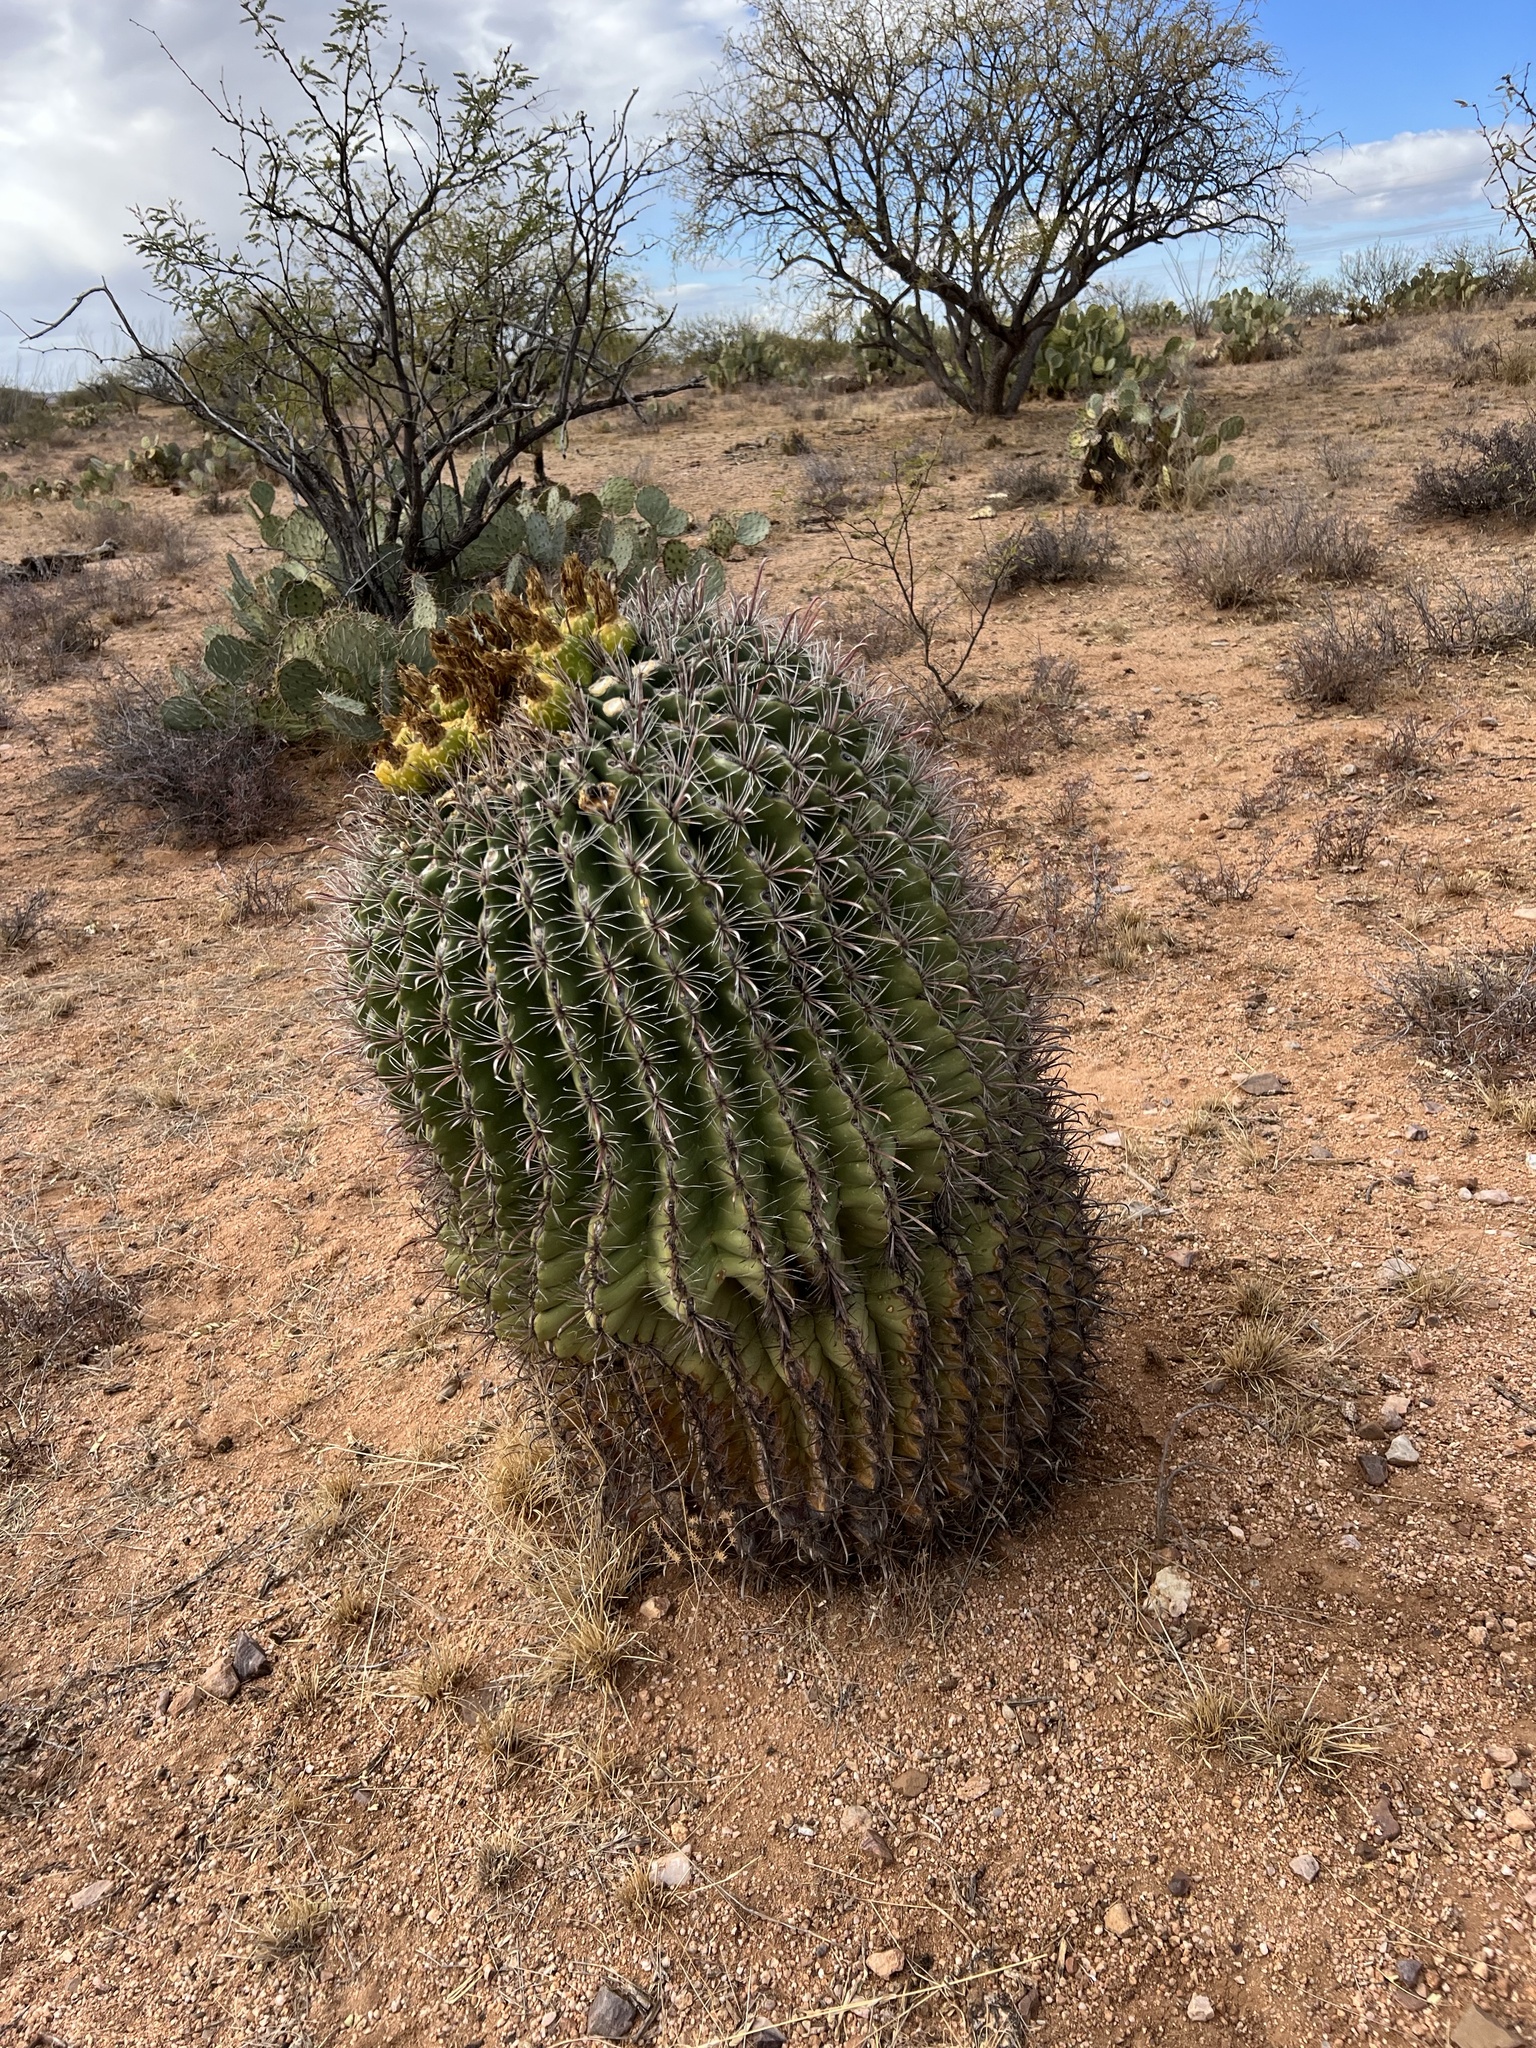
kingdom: Plantae
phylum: Tracheophyta
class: Magnoliopsida
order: Caryophyllales
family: Cactaceae
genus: Ferocactus
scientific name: Ferocactus wislizeni
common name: Candy barrel cactus
